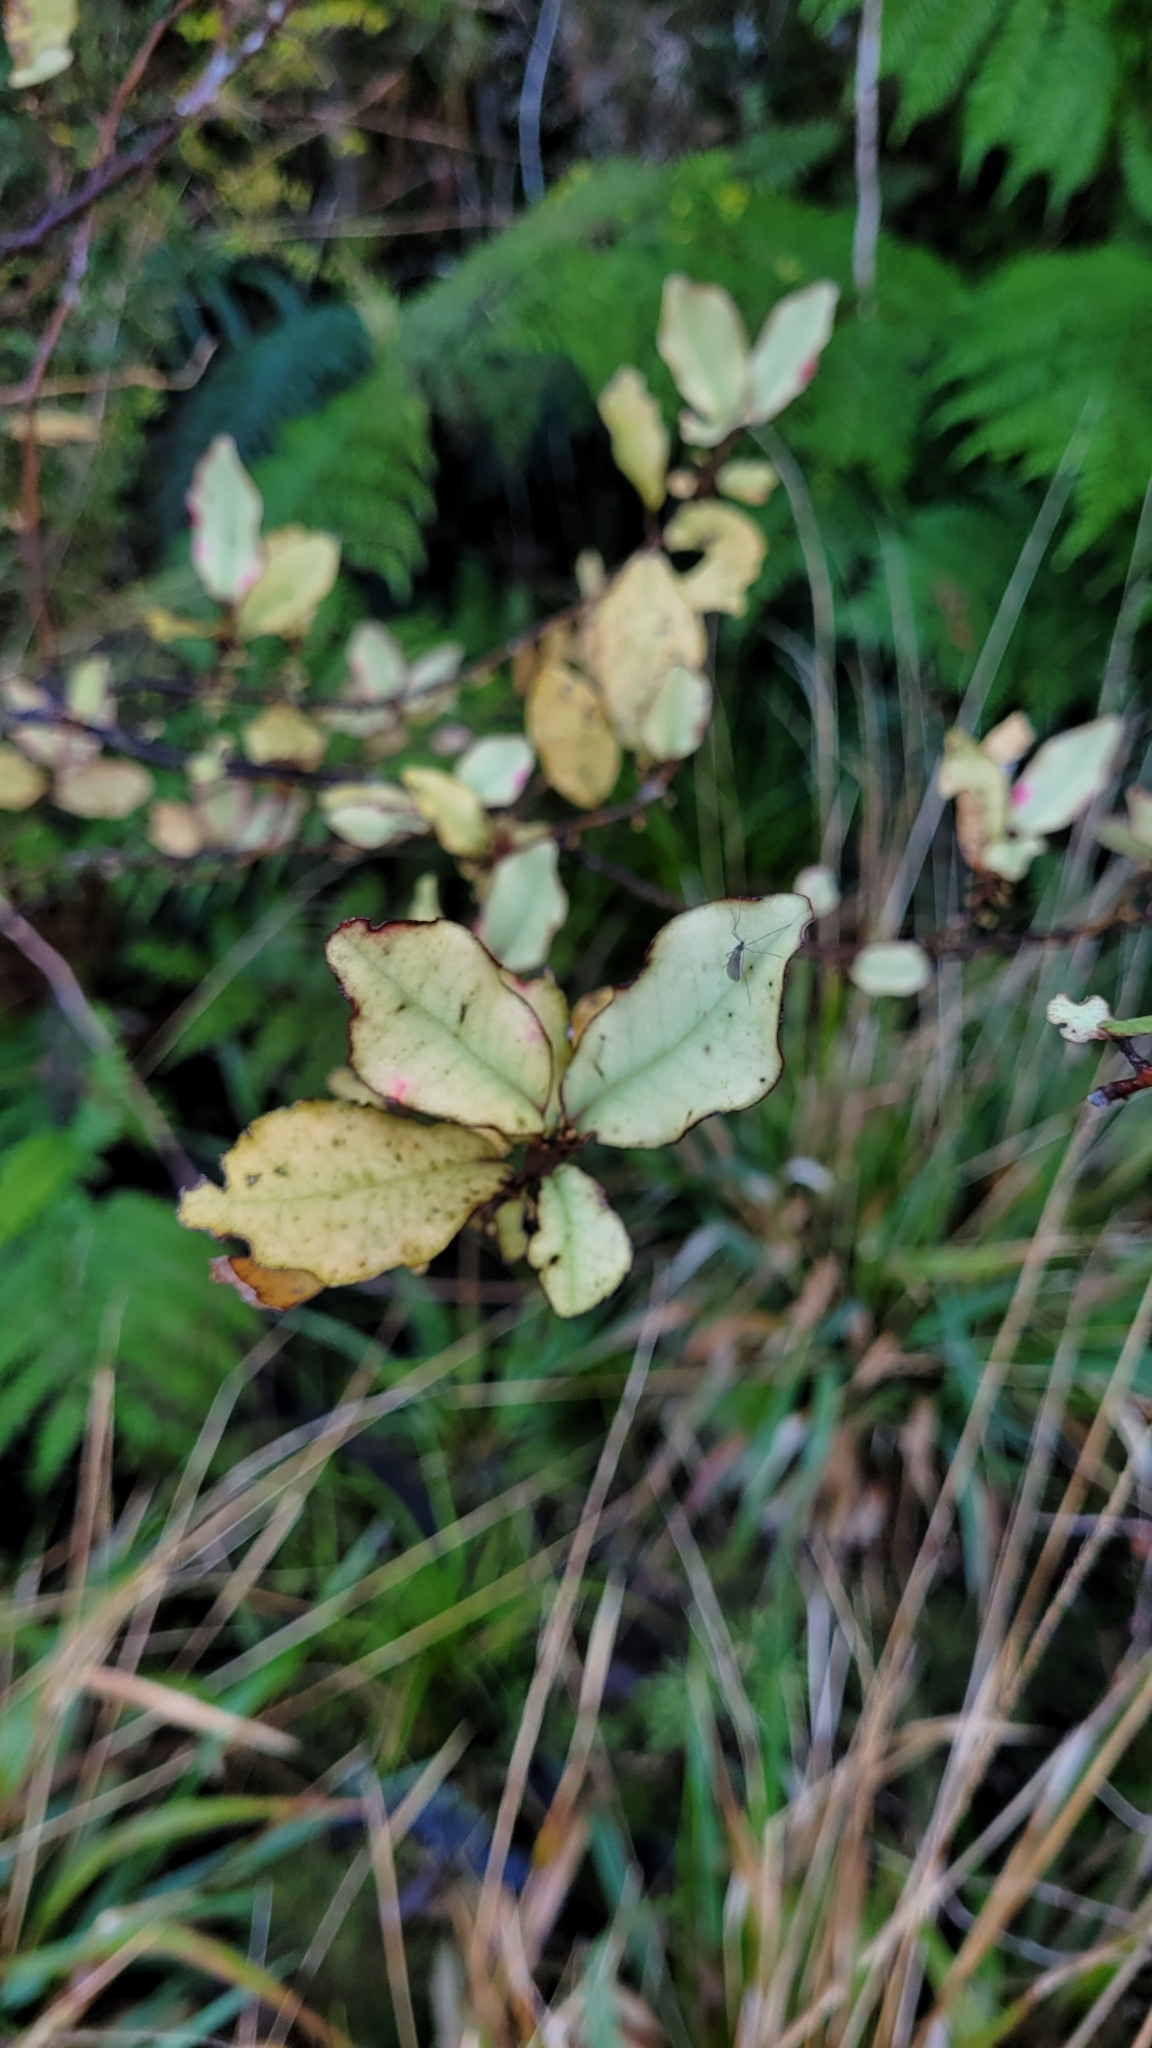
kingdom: Plantae
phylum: Tracheophyta
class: Magnoliopsida
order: Canellales
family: Winteraceae
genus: Pseudowintera
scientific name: Pseudowintera colorata
